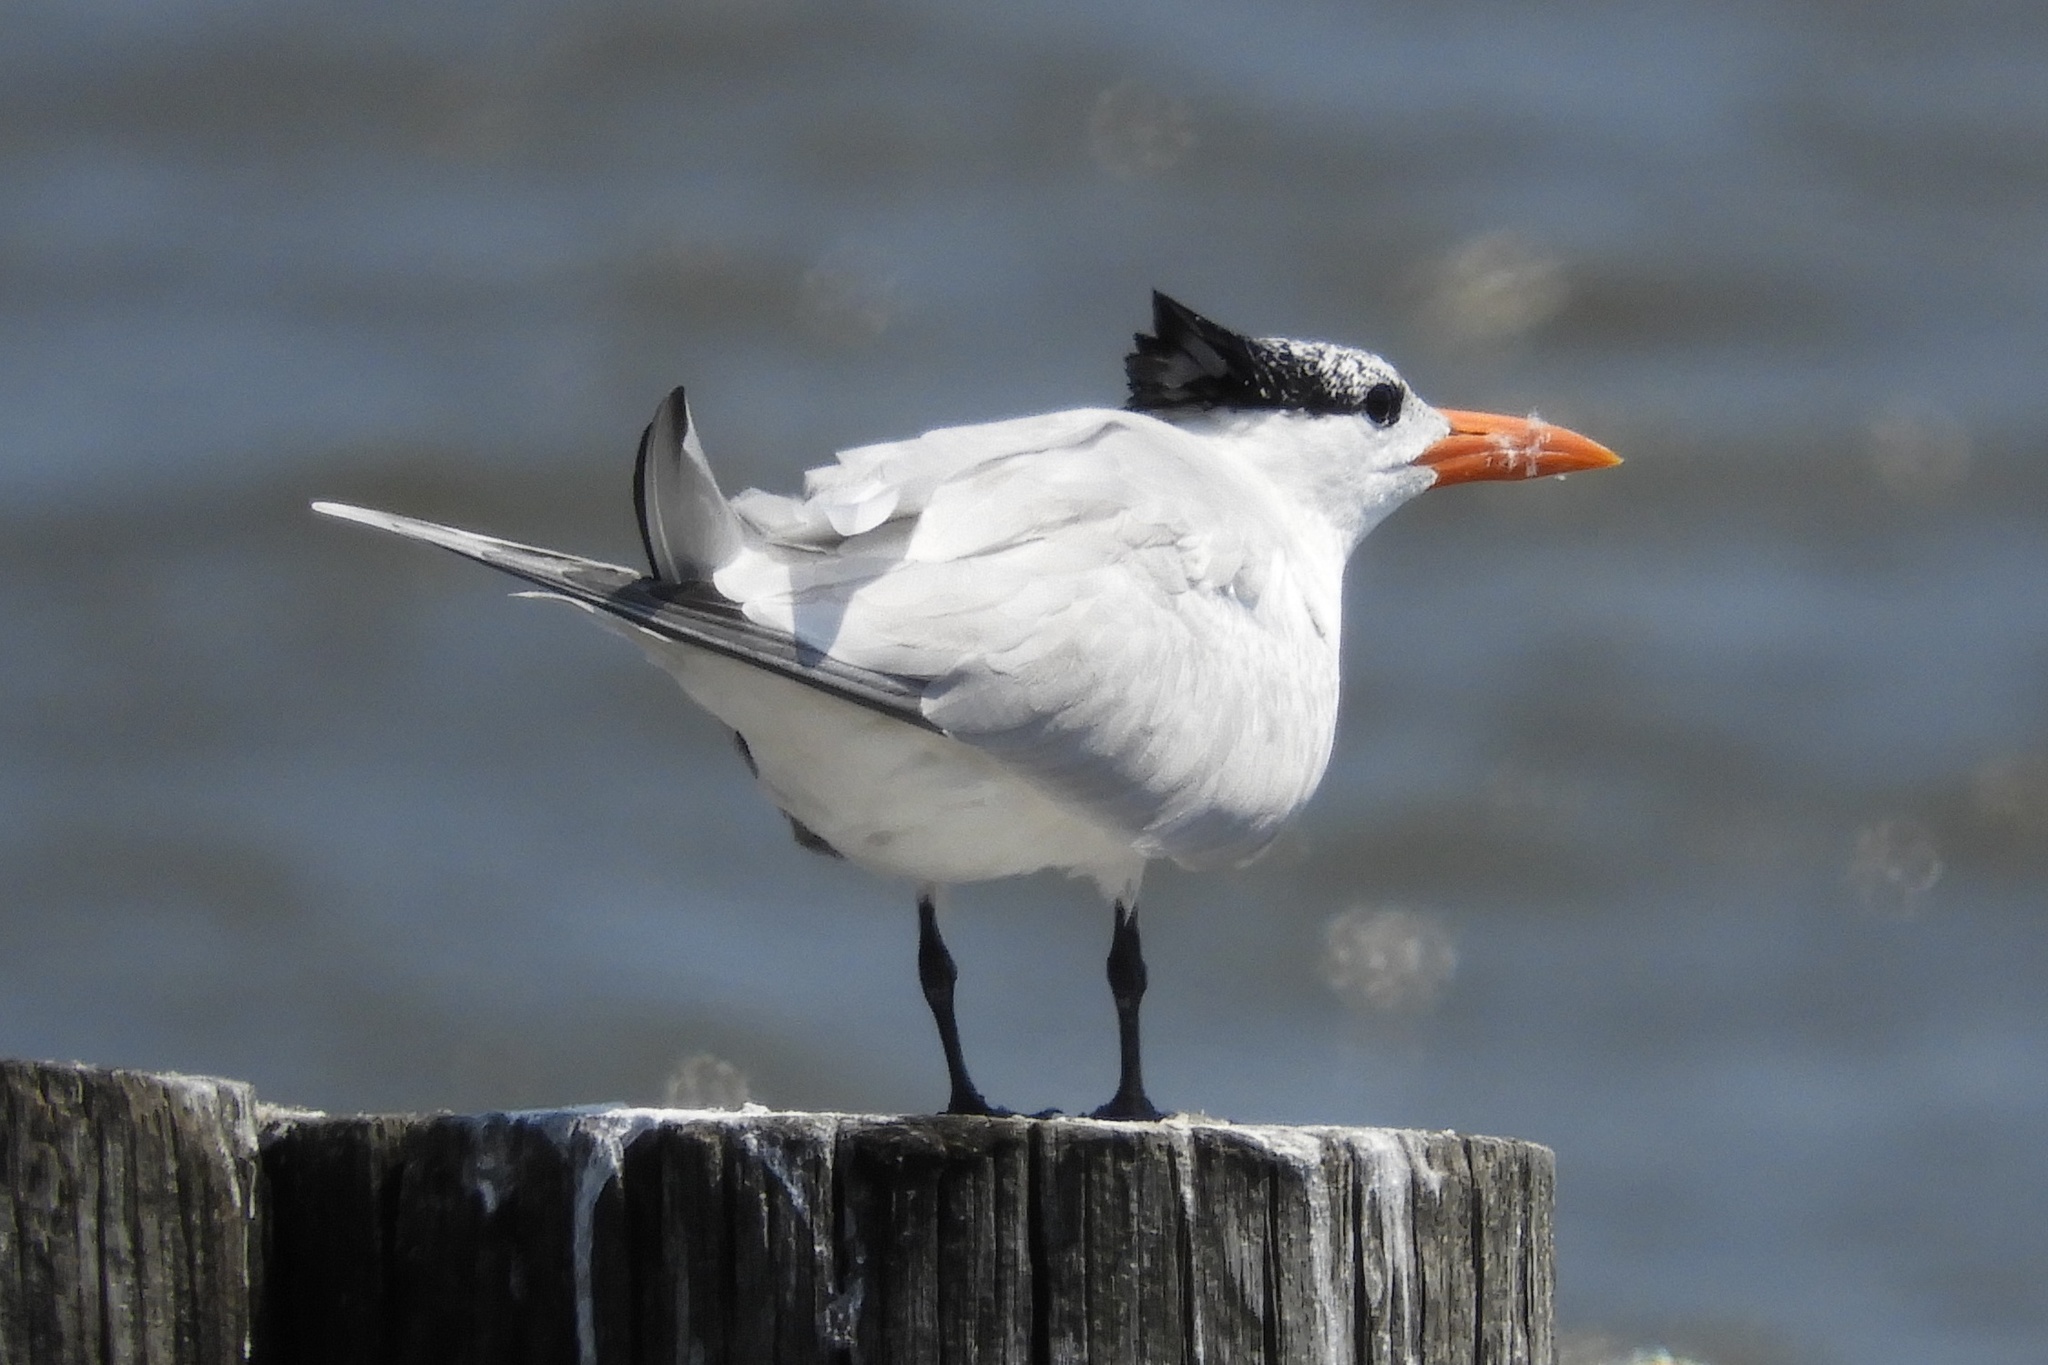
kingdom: Animalia
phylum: Chordata
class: Aves
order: Charadriiformes
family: Laridae
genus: Thalasseus
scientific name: Thalasseus maximus
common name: Royal tern
